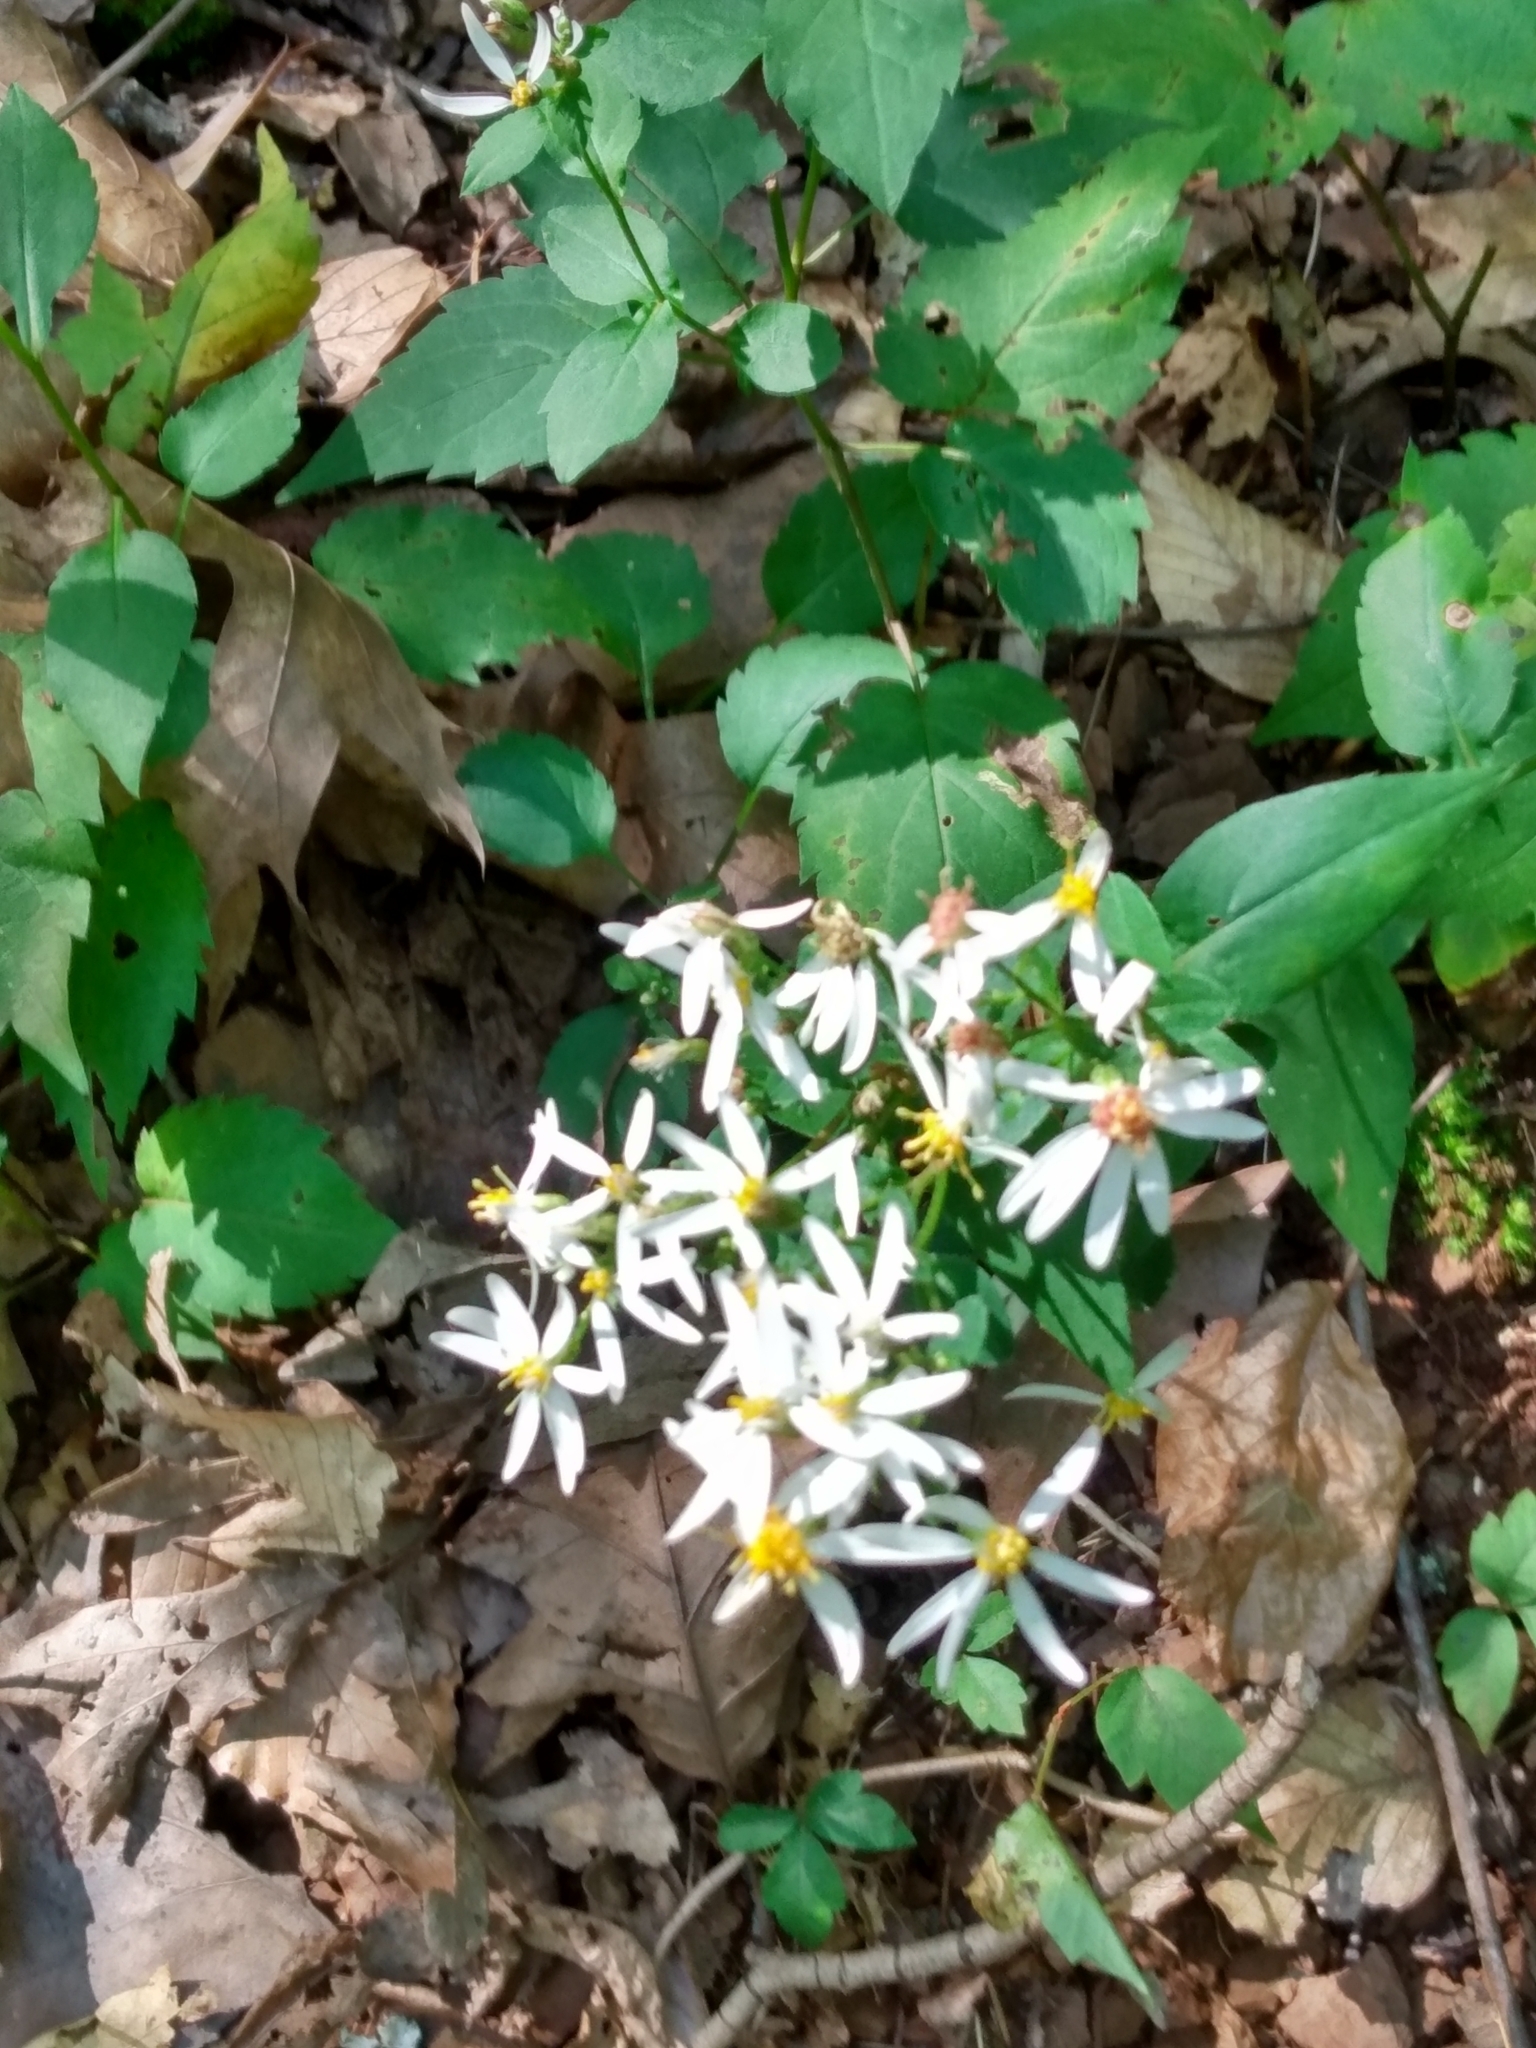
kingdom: Plantae
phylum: Tracheophyta
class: Magnoliopsida
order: Asterales
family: Asteraceae
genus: Eurybia
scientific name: Eurybia divaricata
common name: White wood aster
